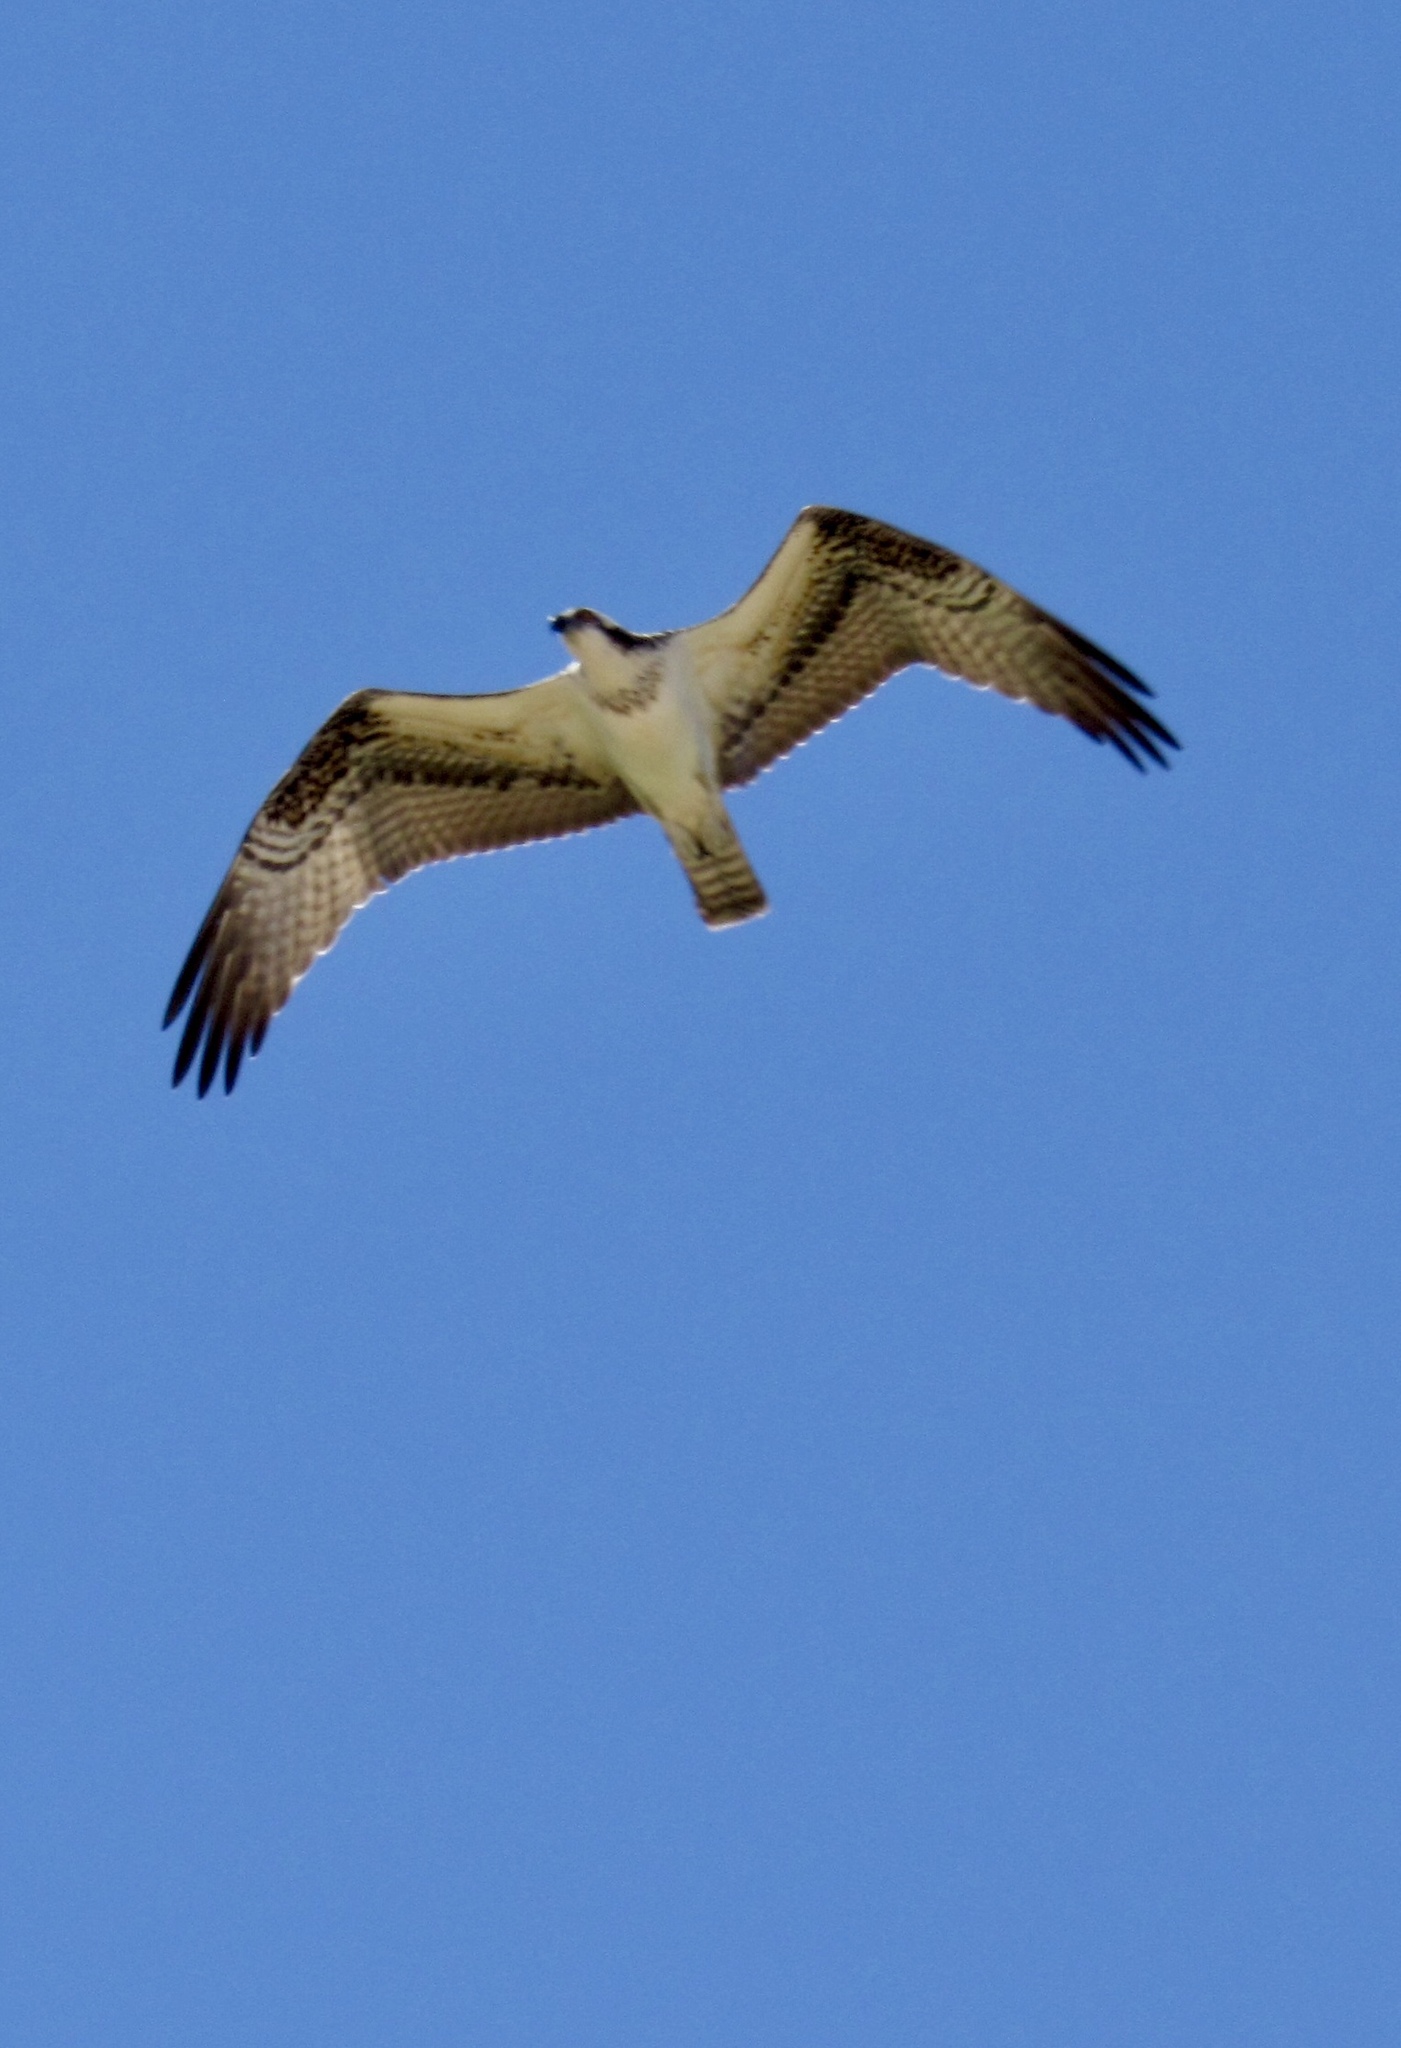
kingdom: Animalia
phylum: Chordata
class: Aves
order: Accipitriformes
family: Pandionidae
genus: Pandion
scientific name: Pandion haliaetus
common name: Osprey
